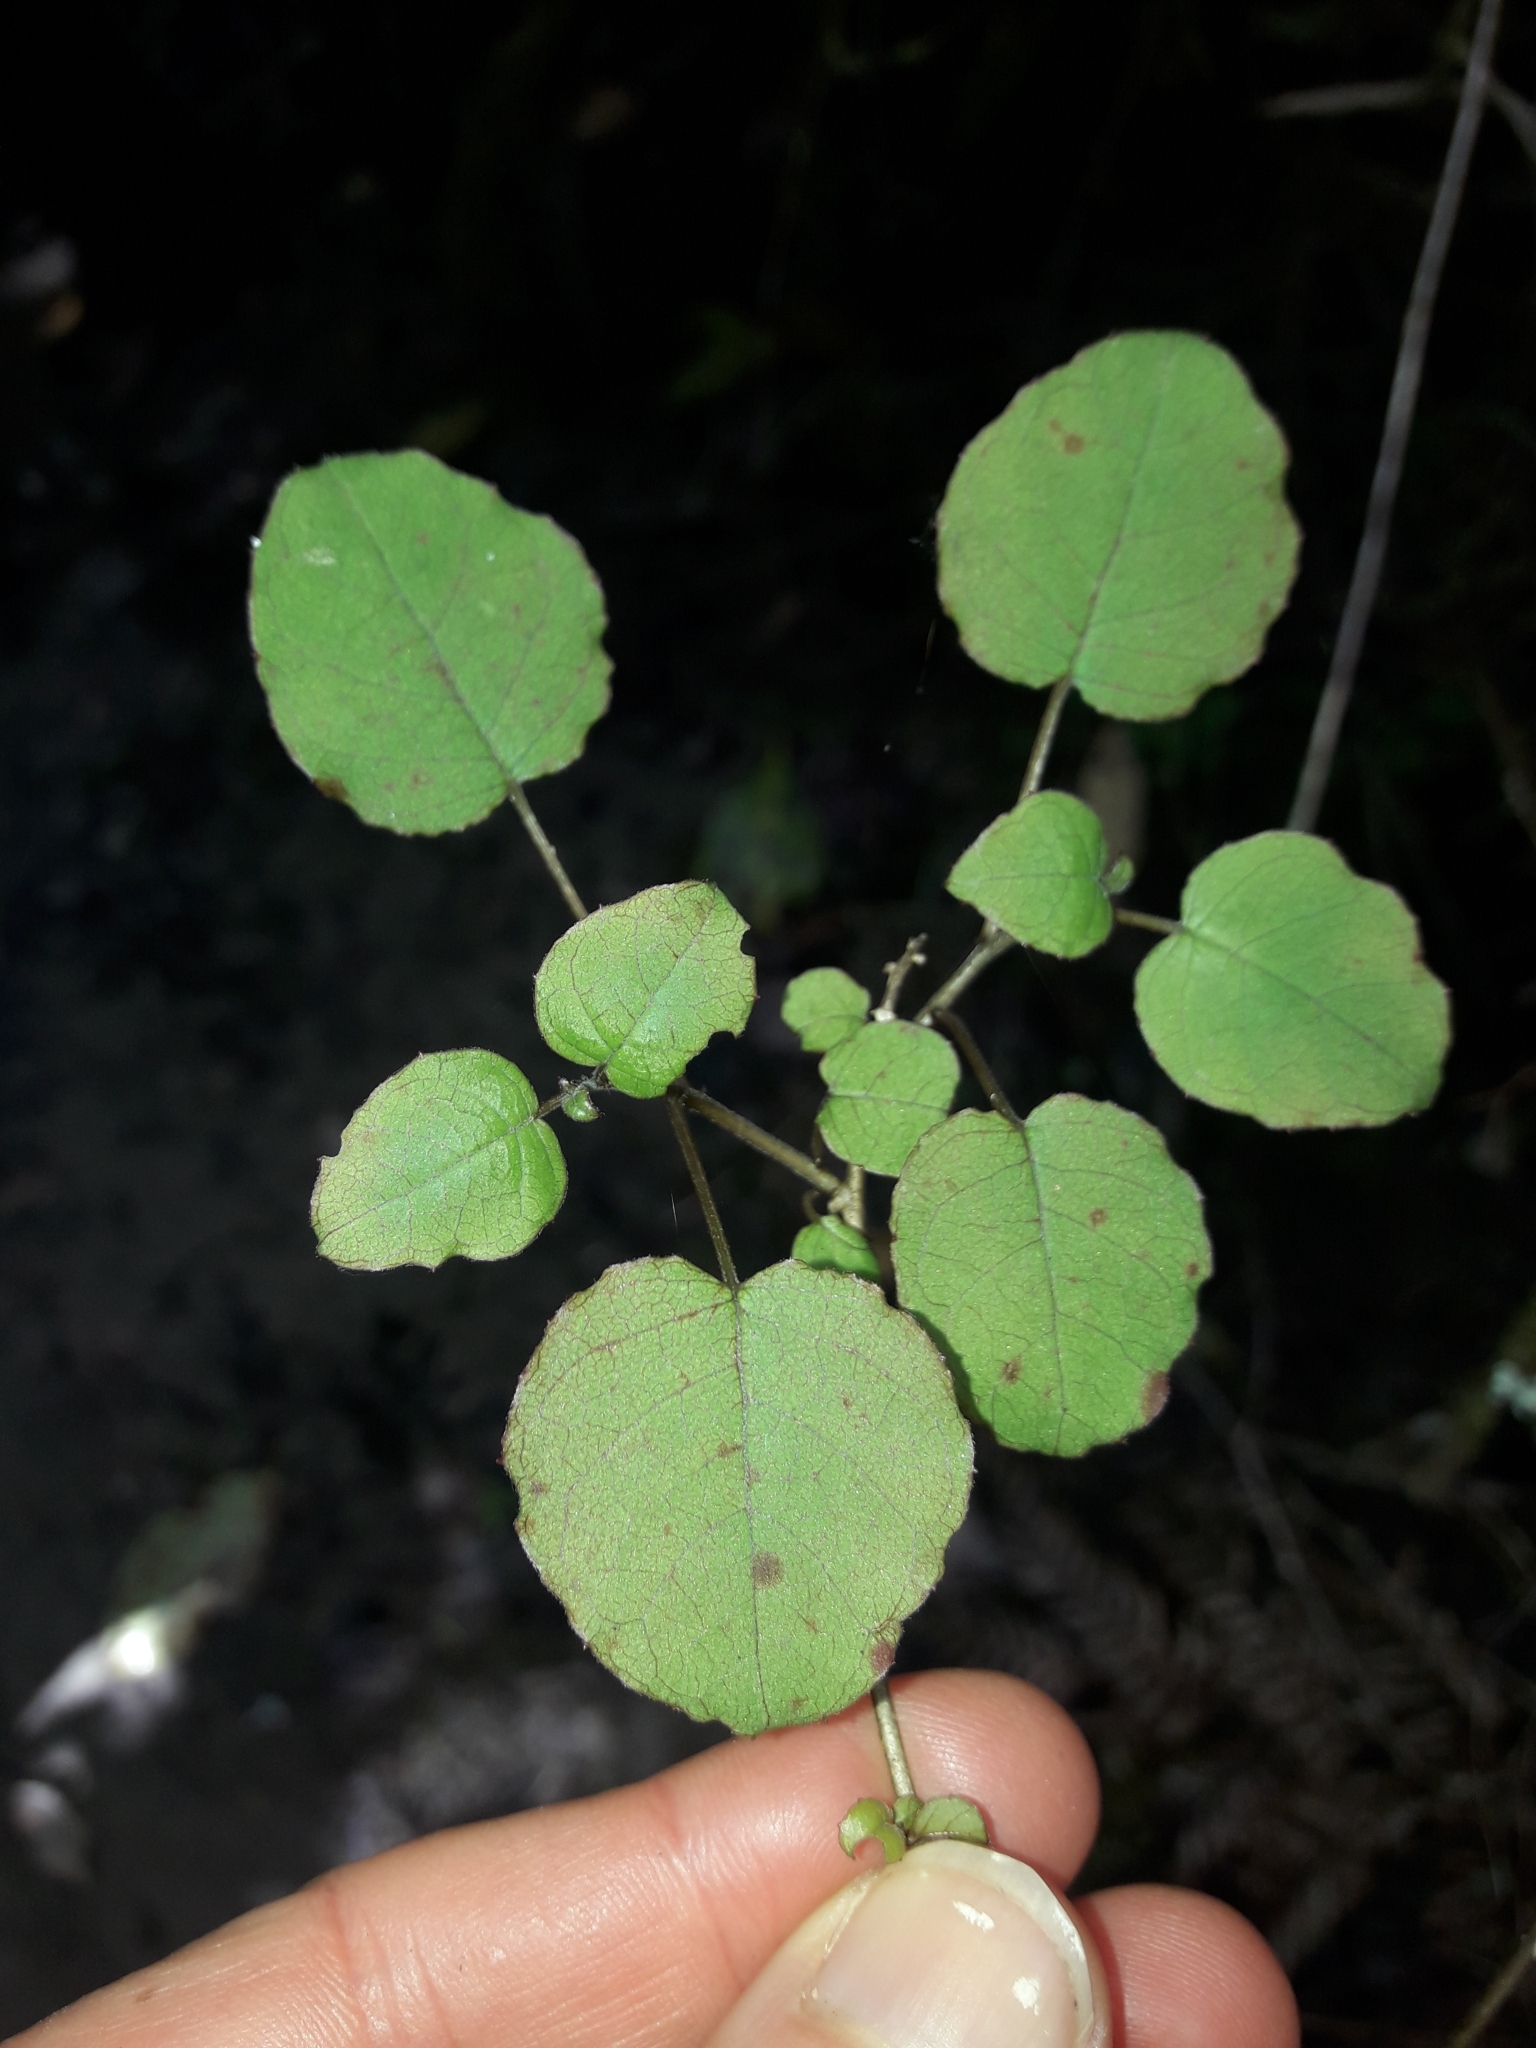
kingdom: Plantae
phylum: Tracheophyta
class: Magnoliopsida
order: Myrtales
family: Onagraceae
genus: Fuchsia
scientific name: Fuchsia perscandens
